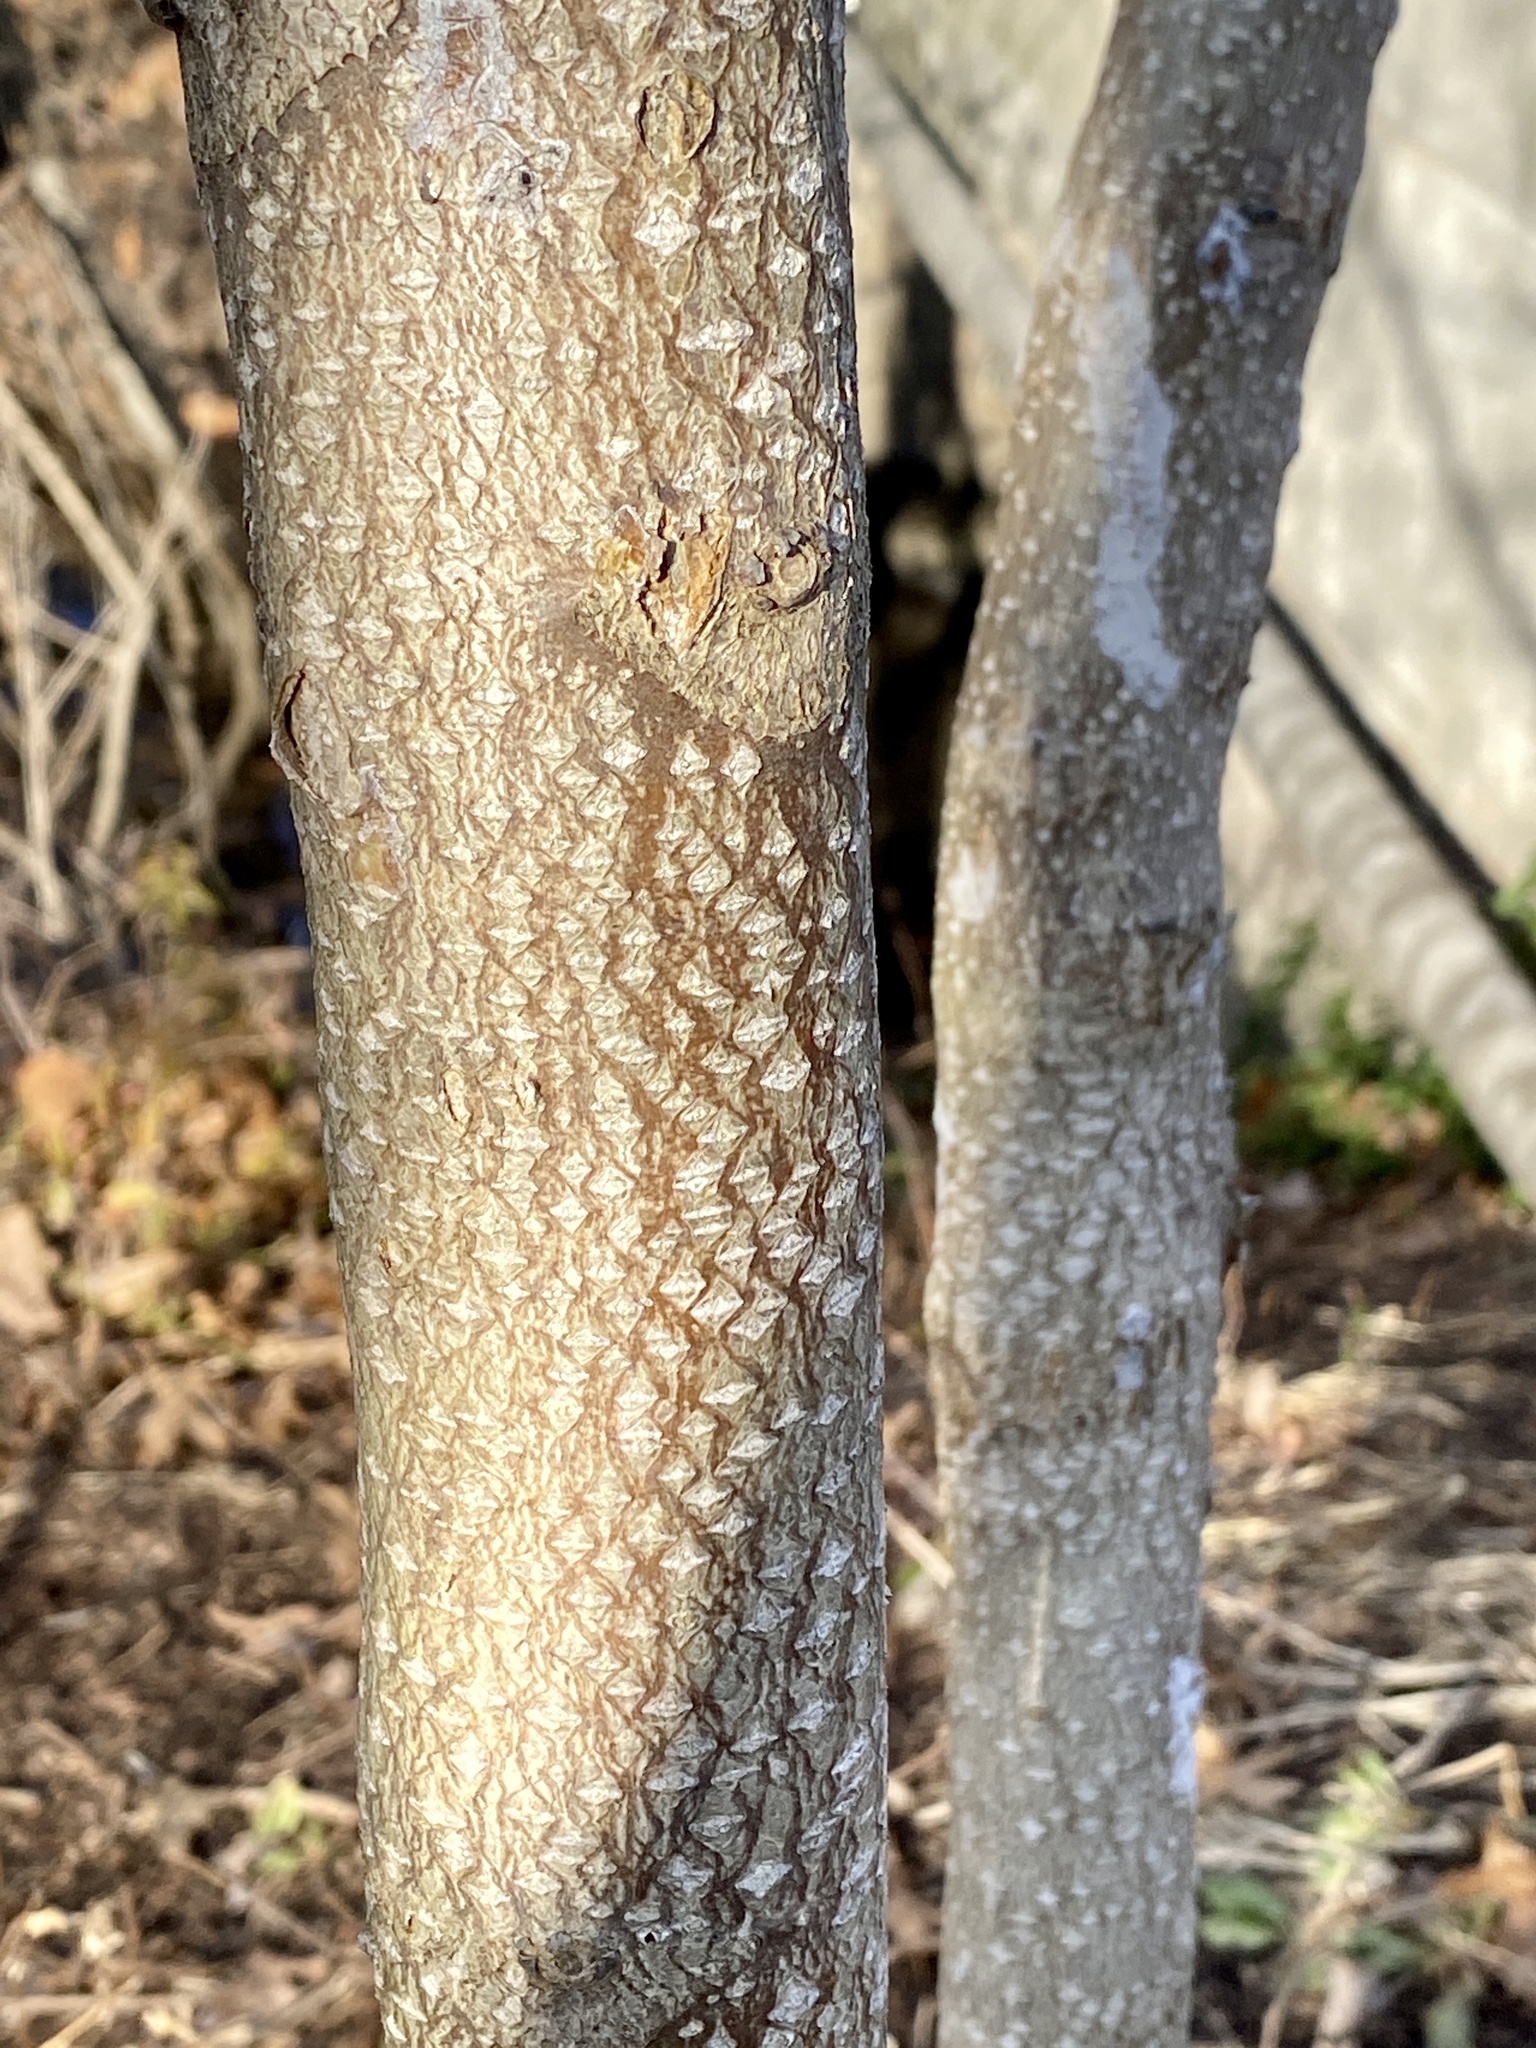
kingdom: Plantae
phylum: Tracheophyta
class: Magnoliopsida
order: Sapindales
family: Simaroubaceae
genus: Ailanthus
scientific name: Ailanthus altissima
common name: Tree-of-heaven
